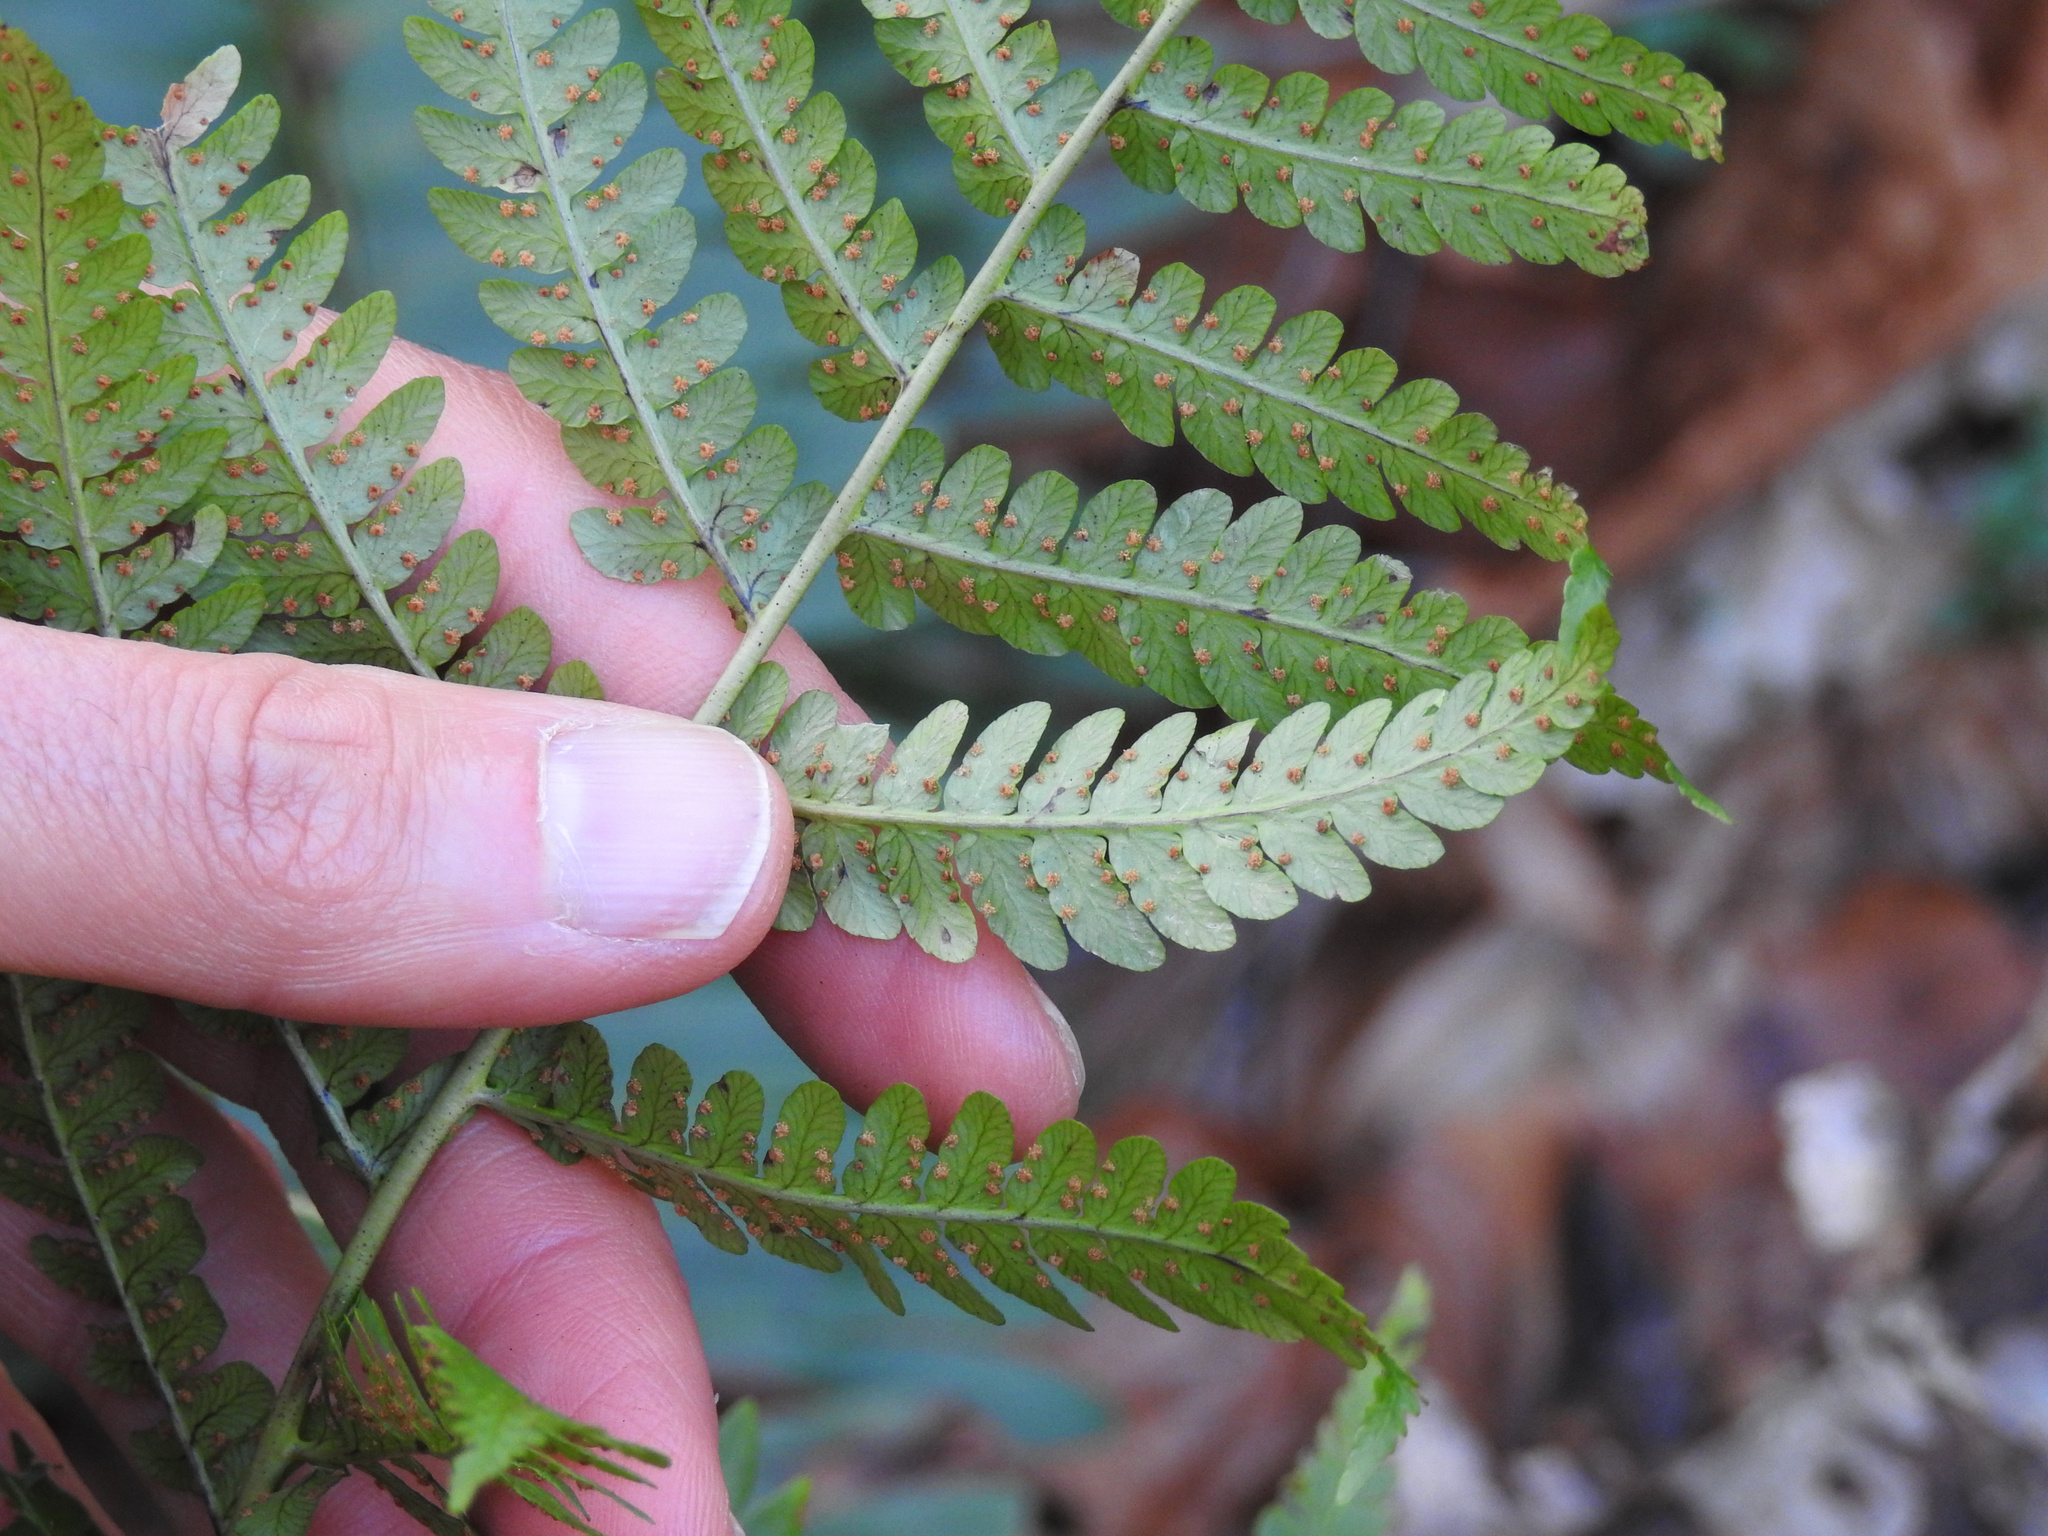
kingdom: Plantae
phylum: Tracheophyta
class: Polypodiopsida
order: Polypodiales
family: Dryopteridaceae
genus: Dryopteris
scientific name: Dryopteris marginalis
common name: Marginal wood fern
